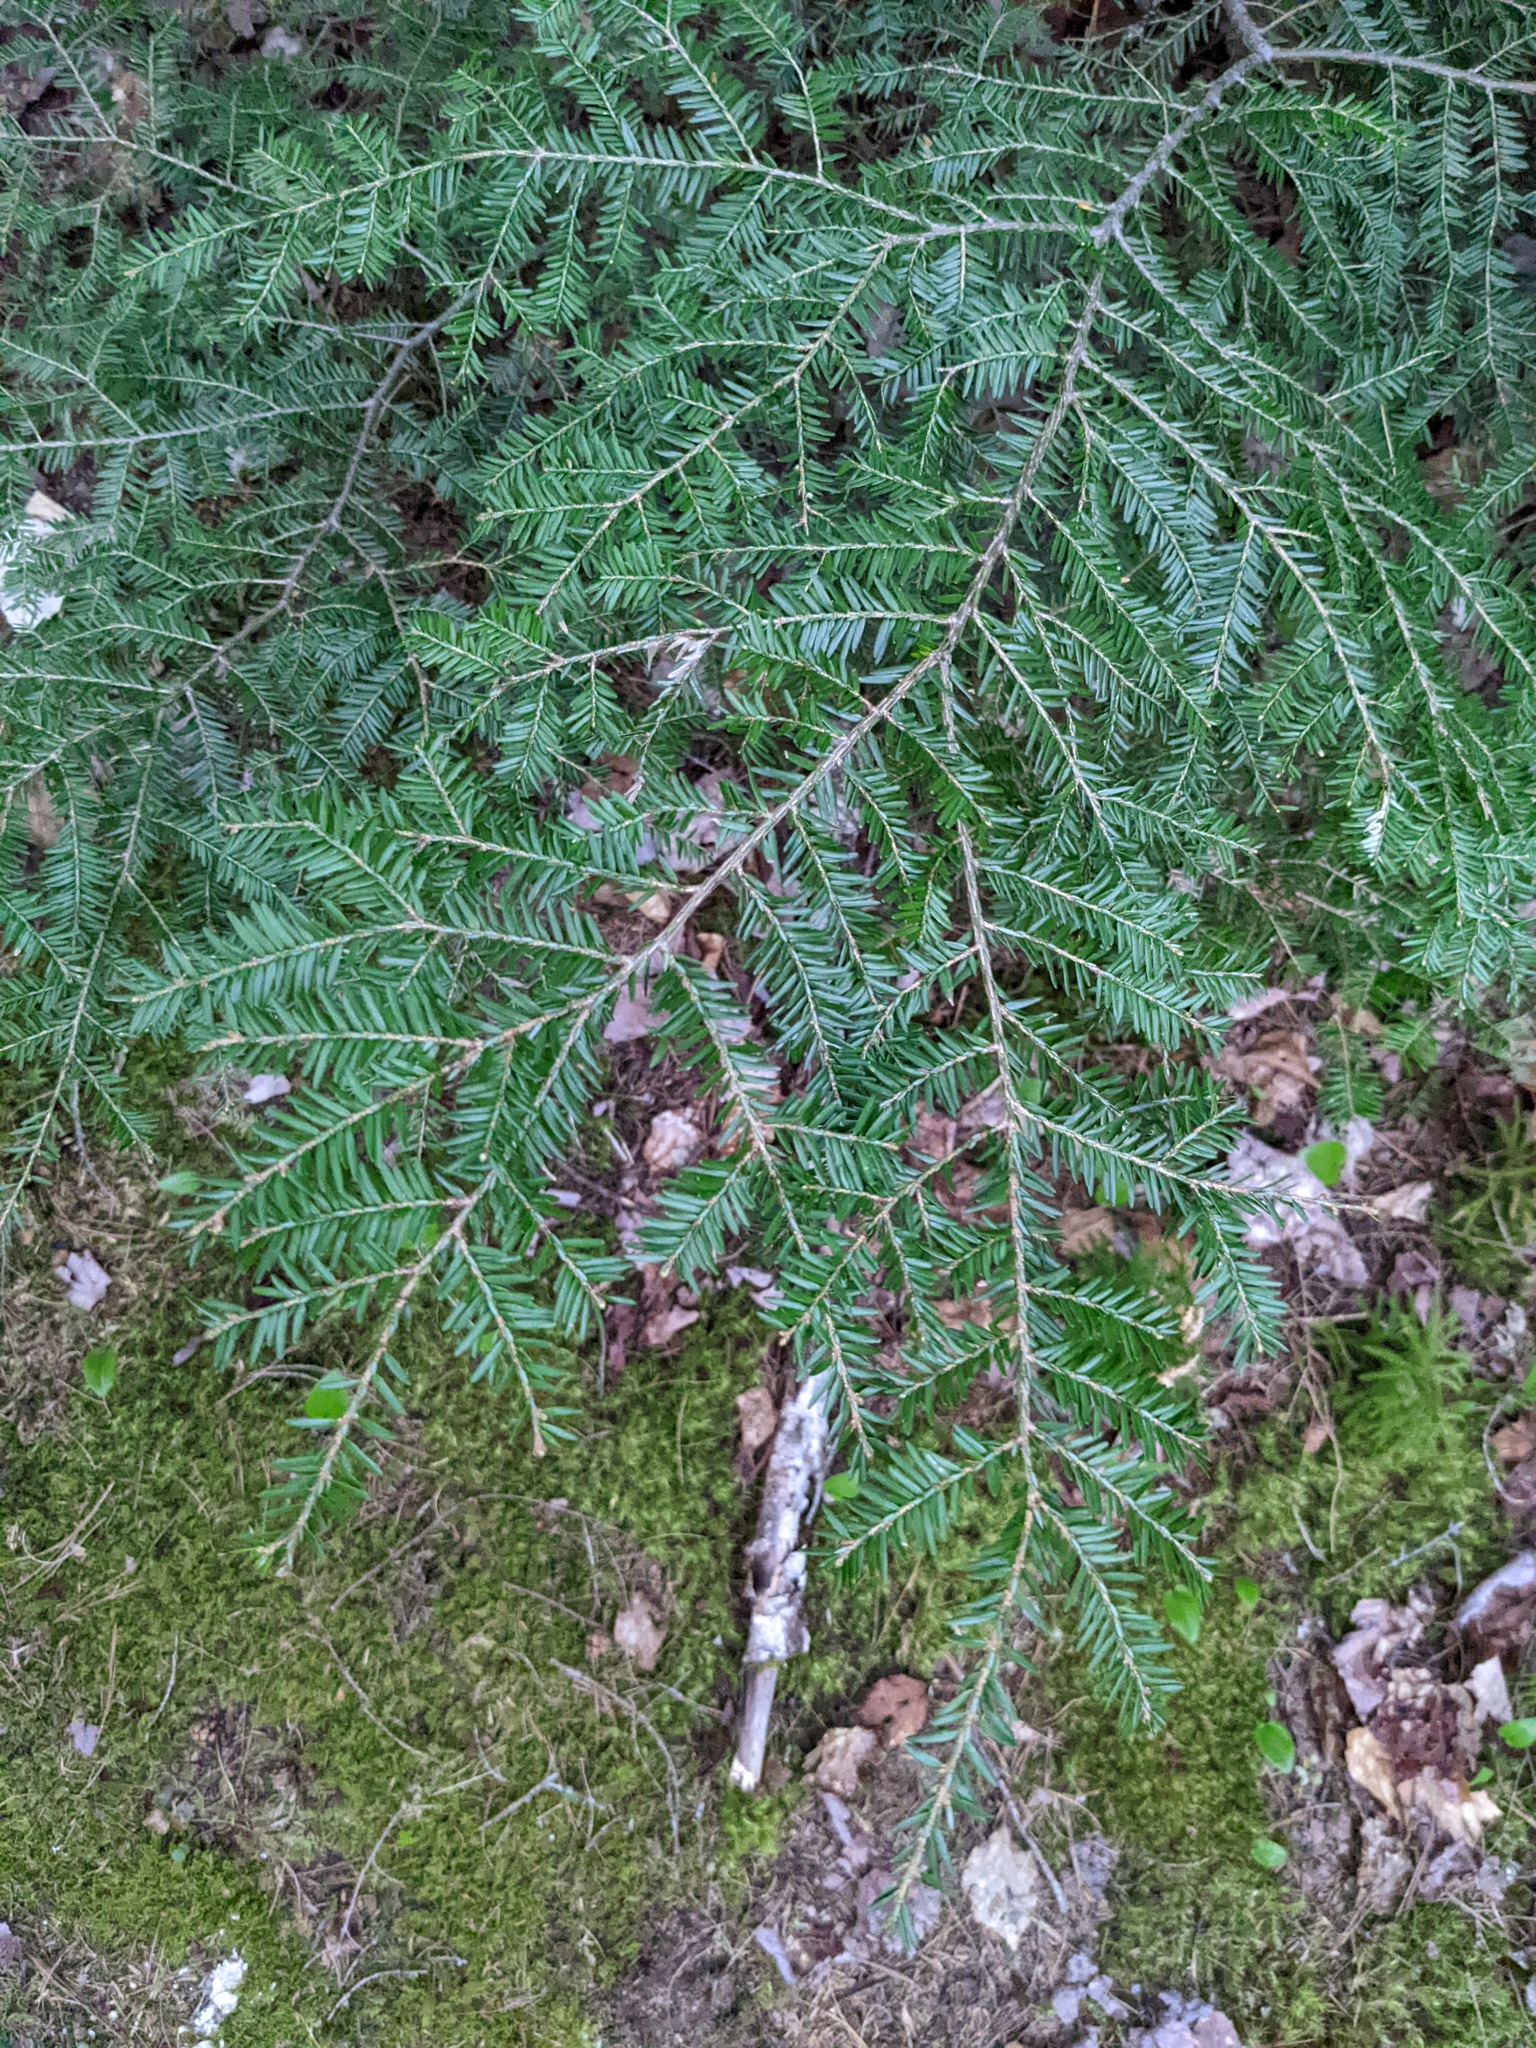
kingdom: Plantae
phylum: Tracheophyta
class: Pinopsida
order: Pinales
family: Pinaceae
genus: Tsuga
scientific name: Tsuga canadensis
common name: Eastern hemlock
